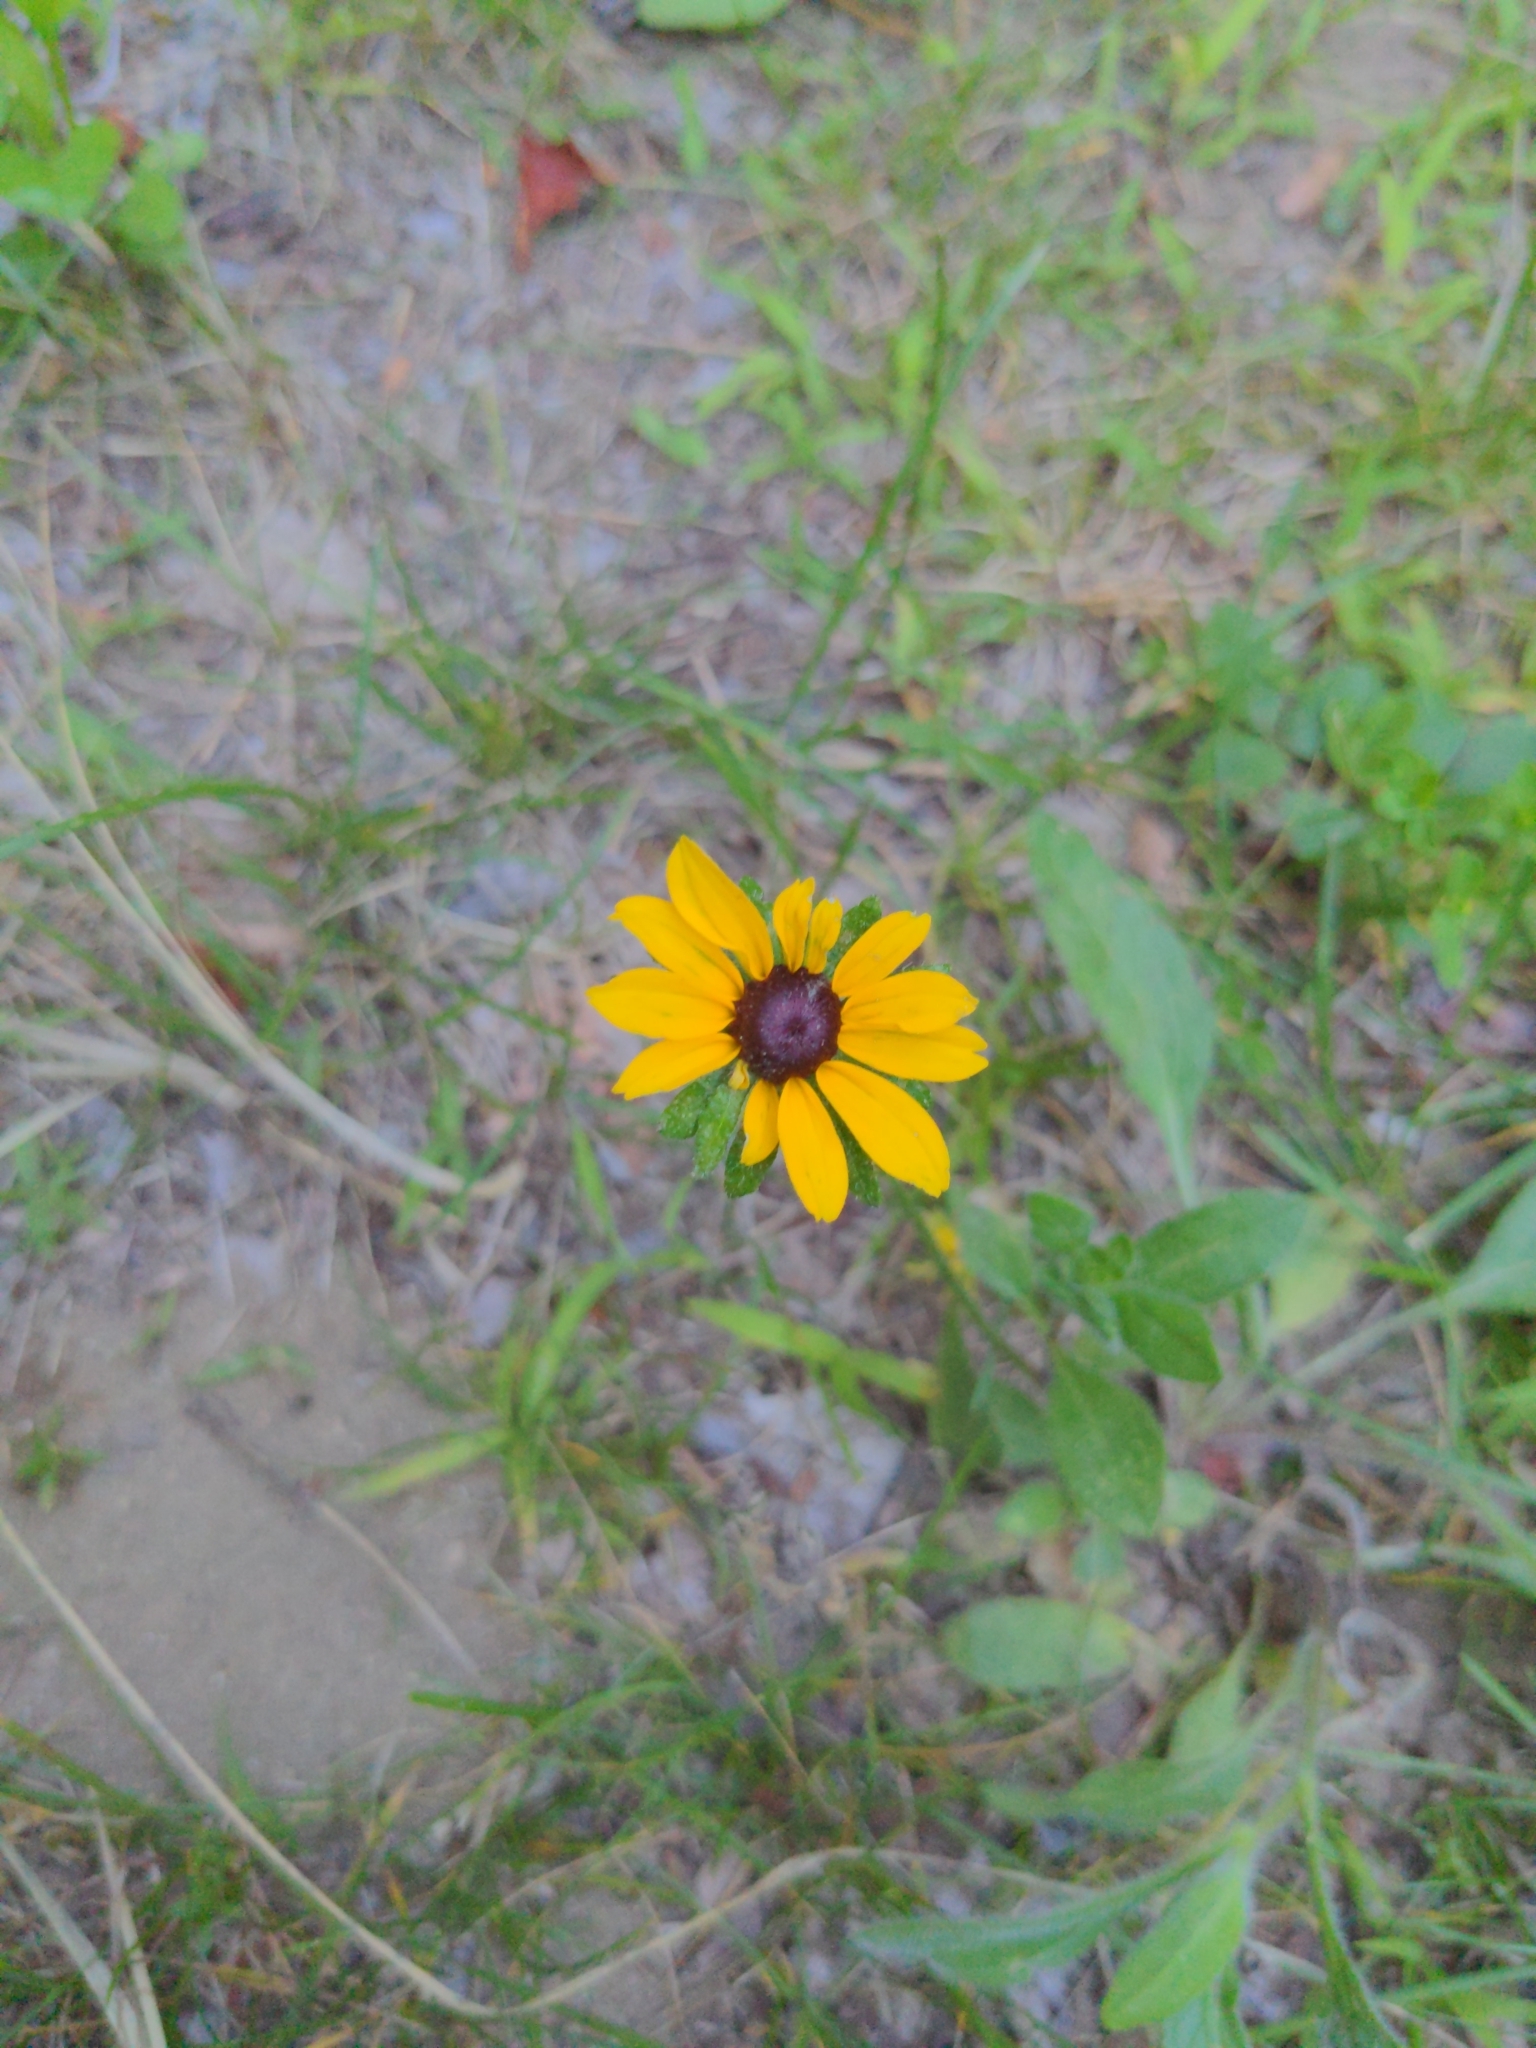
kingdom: Plantae
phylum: Tracheophyta
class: Magnoliopsida
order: Asterales
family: Asteraceae
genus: Rudbeckia
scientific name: Rudbeckia hirta
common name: Black-eyed-susan
